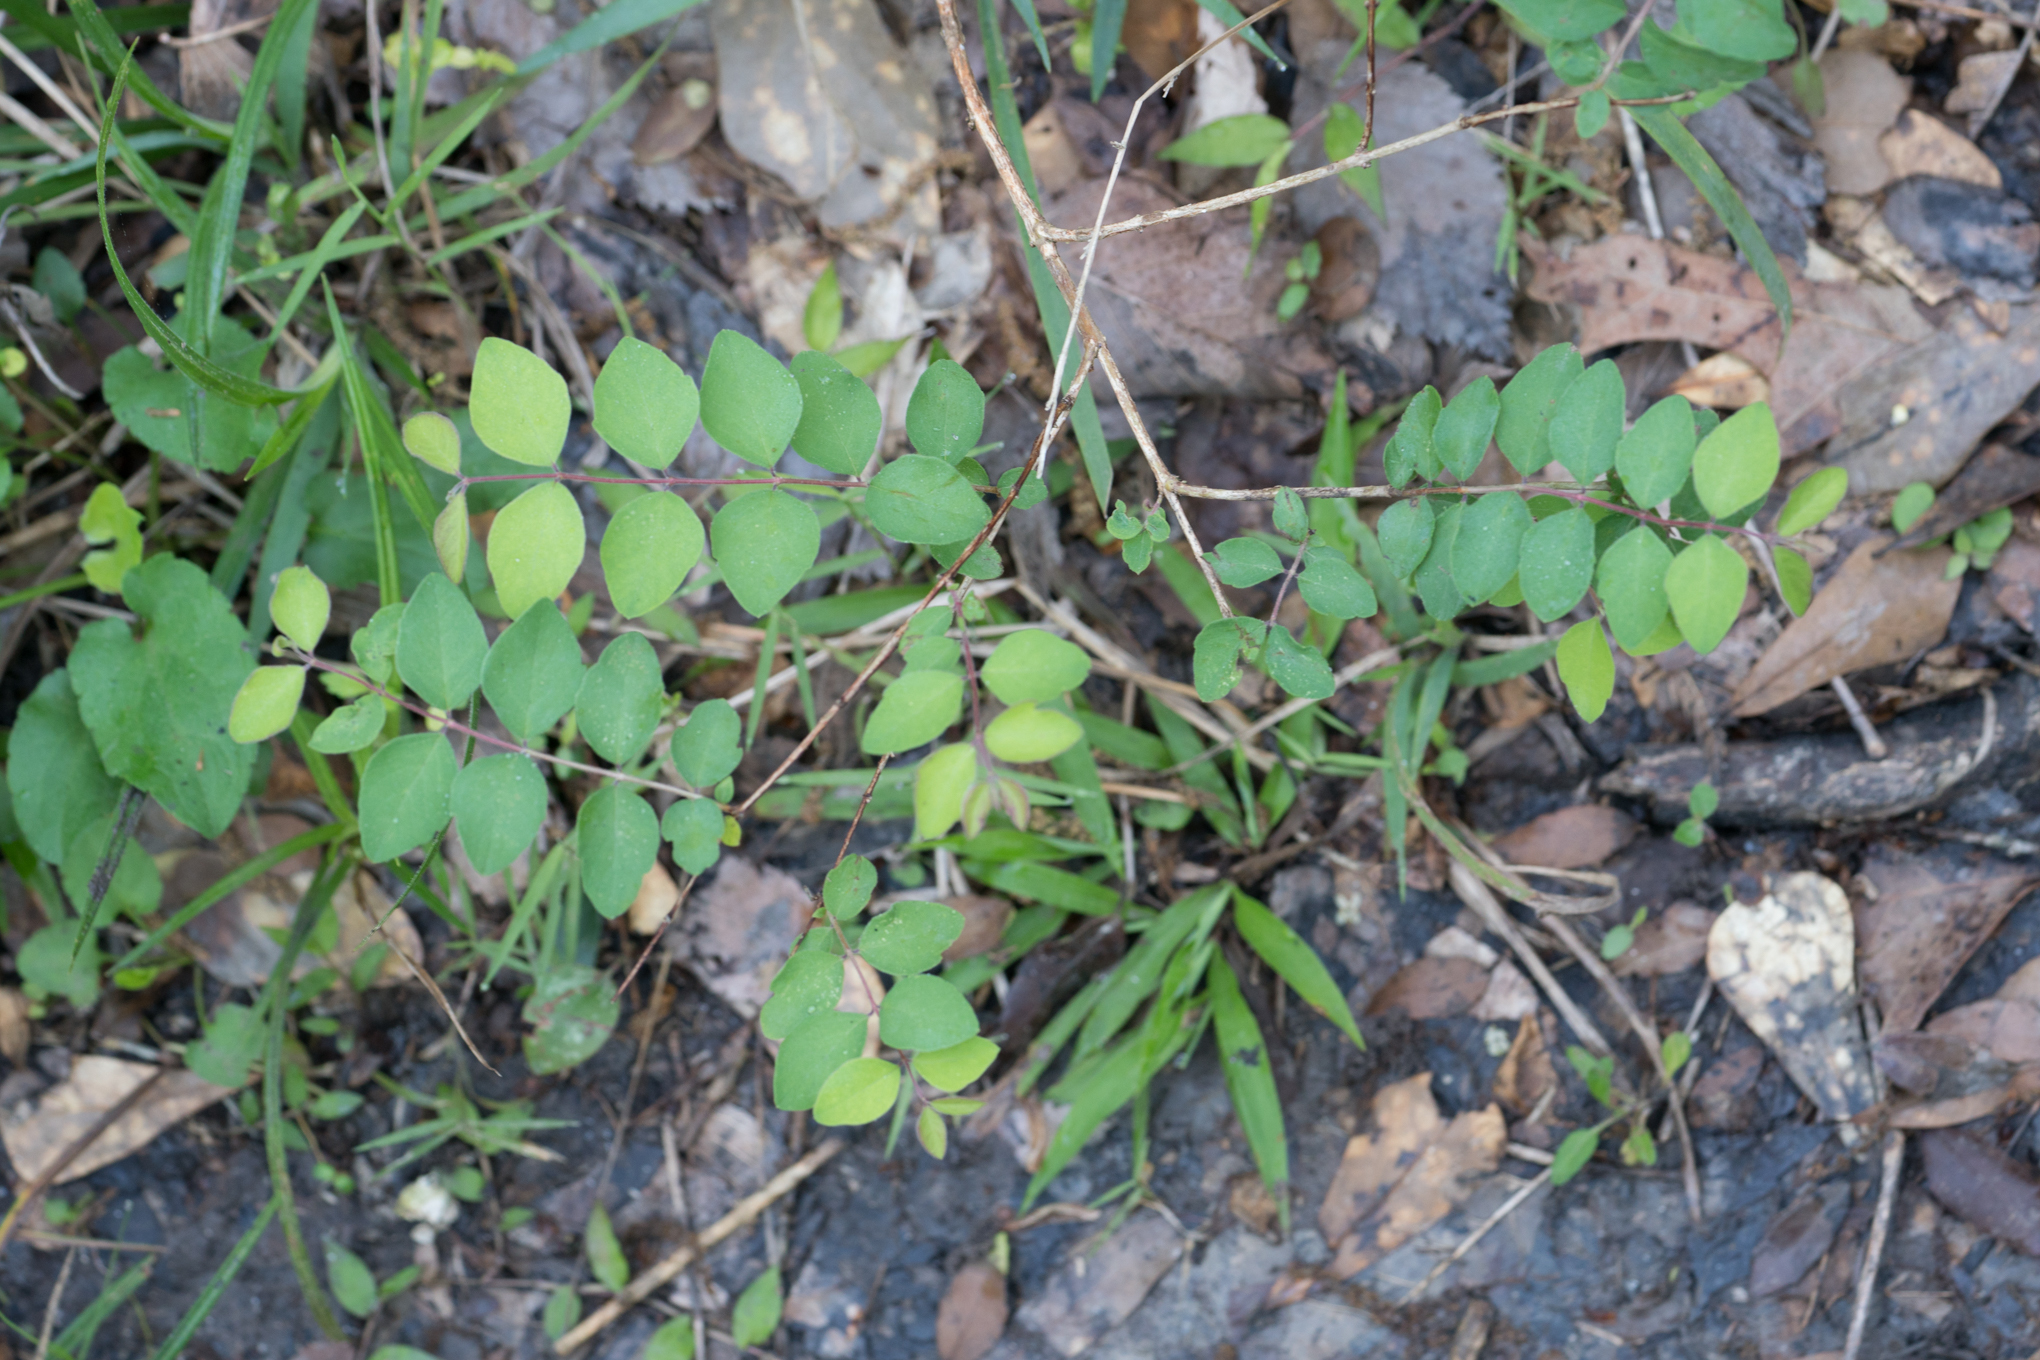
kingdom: Plantae
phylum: Tracheophyta
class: Magnoliopsida
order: Dipsacales
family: Caprifoliaceae
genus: Symphoricarpos
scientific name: Symphoricarpos orbiculatus
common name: Coralberry
